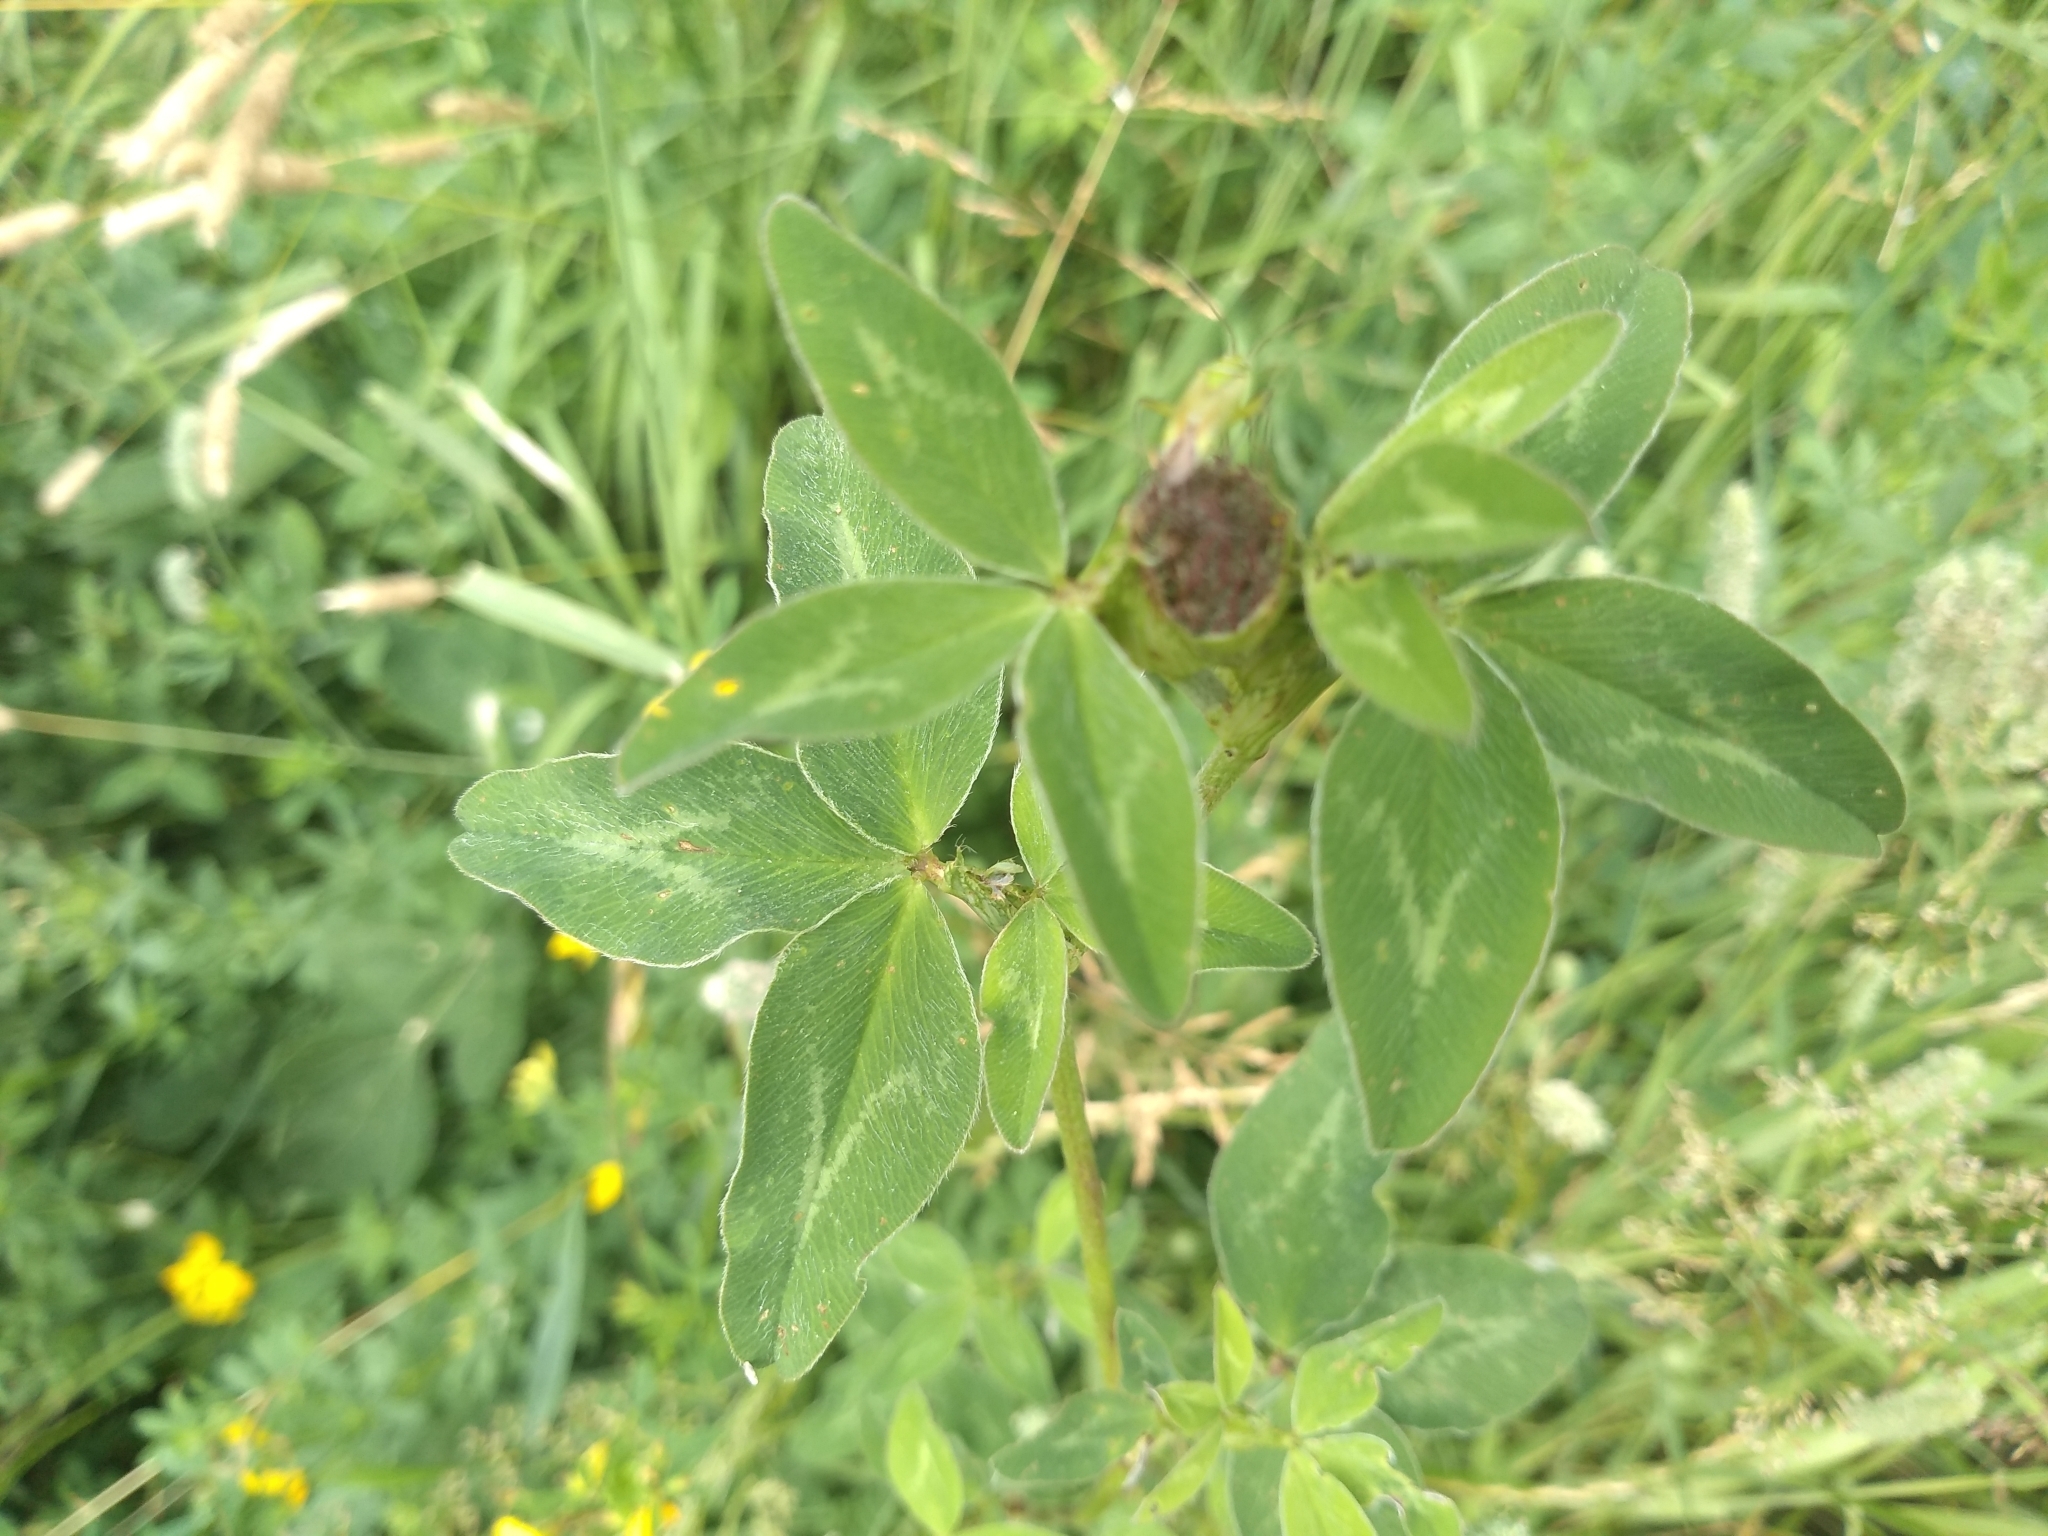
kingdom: Plantae
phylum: Tracheophyta
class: Magnoliopsida
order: Fabales
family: Fabaceae
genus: Trifolium
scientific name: Trifolium pratense
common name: Red clover
